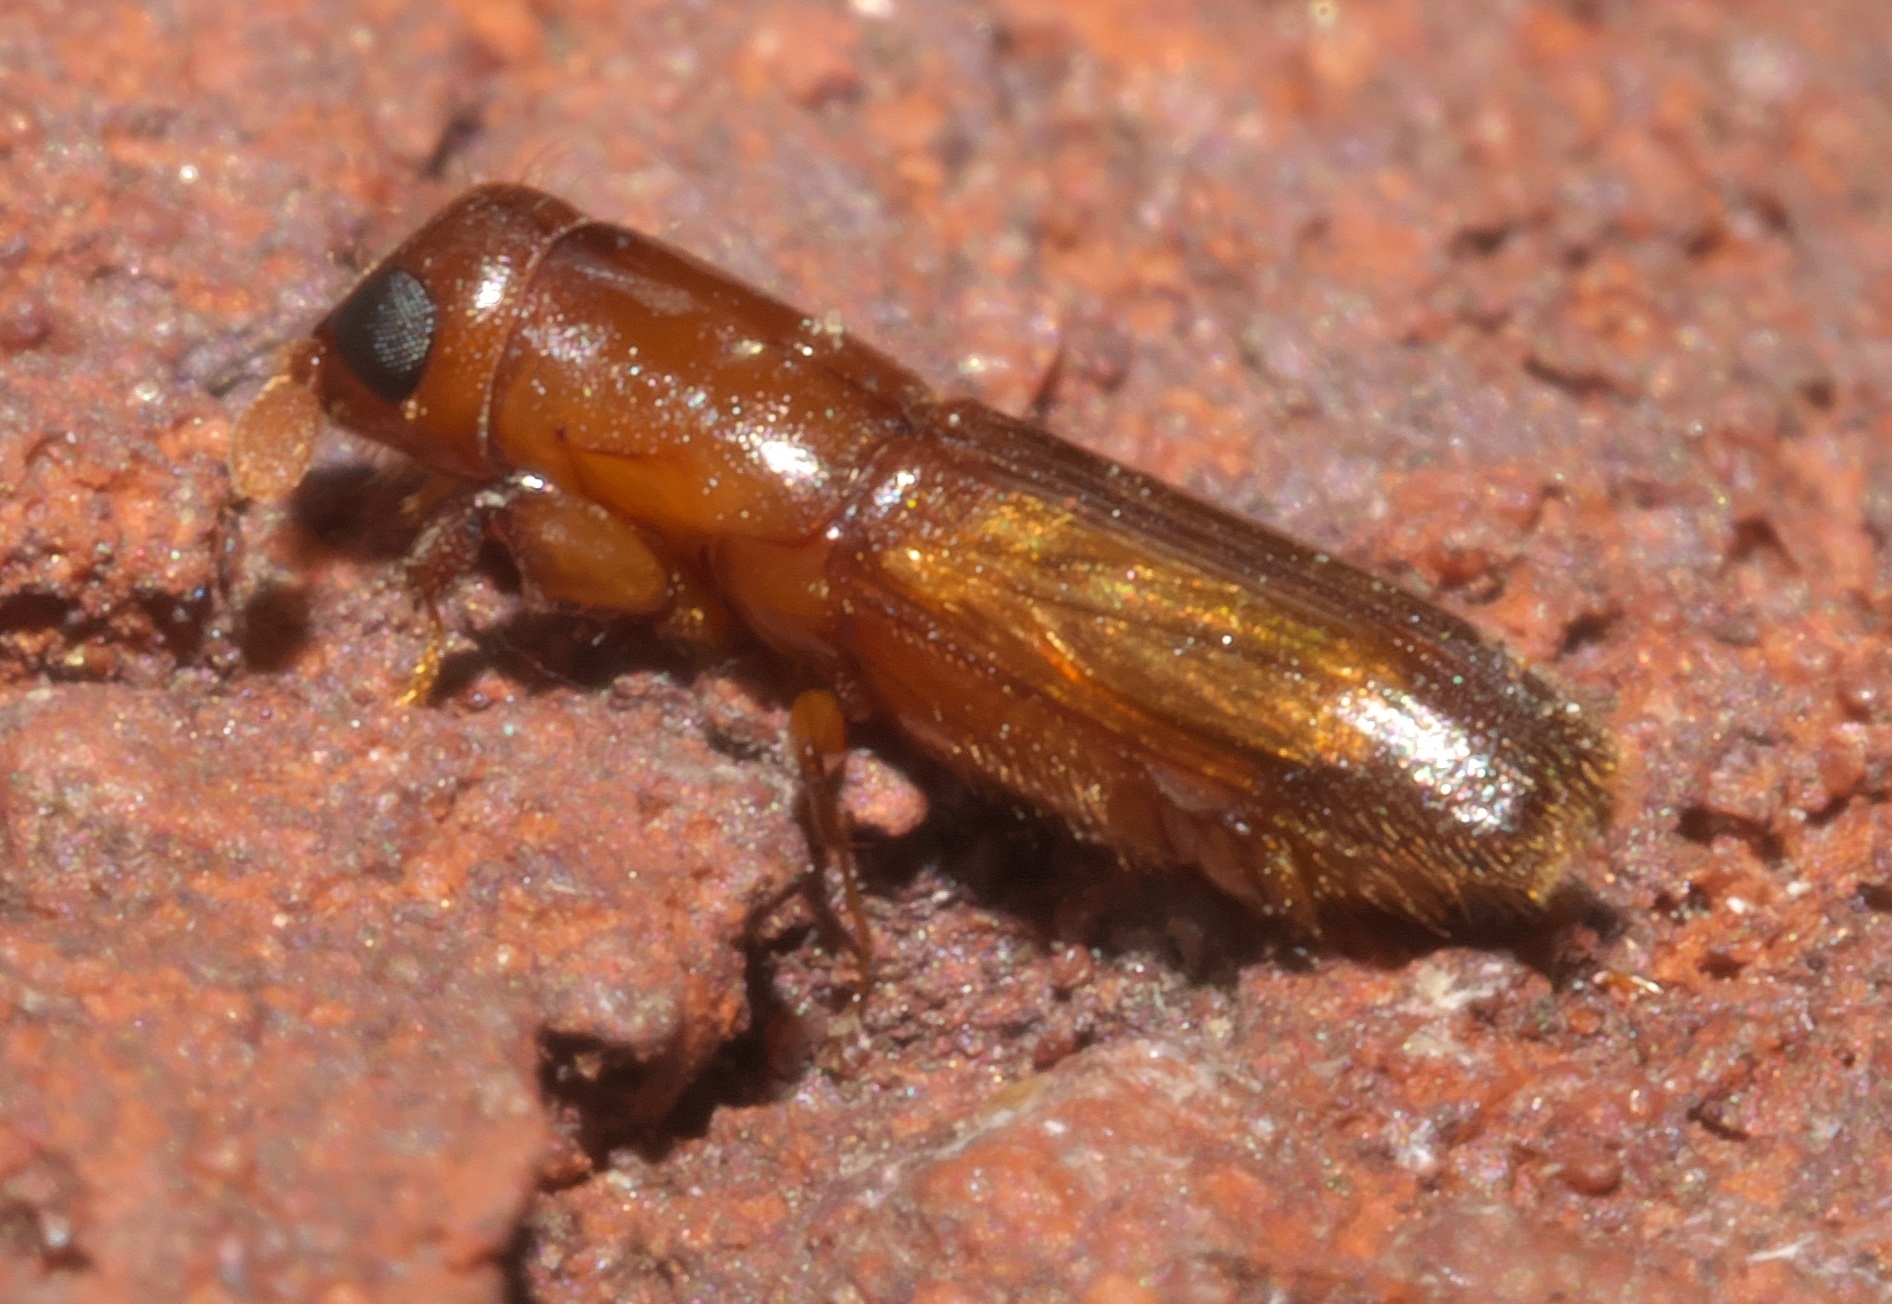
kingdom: Animalia
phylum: Arthropoda
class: Insecta
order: Coleoptera
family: Curculionidae
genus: Euplatypus
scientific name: Euplatypus compositus
